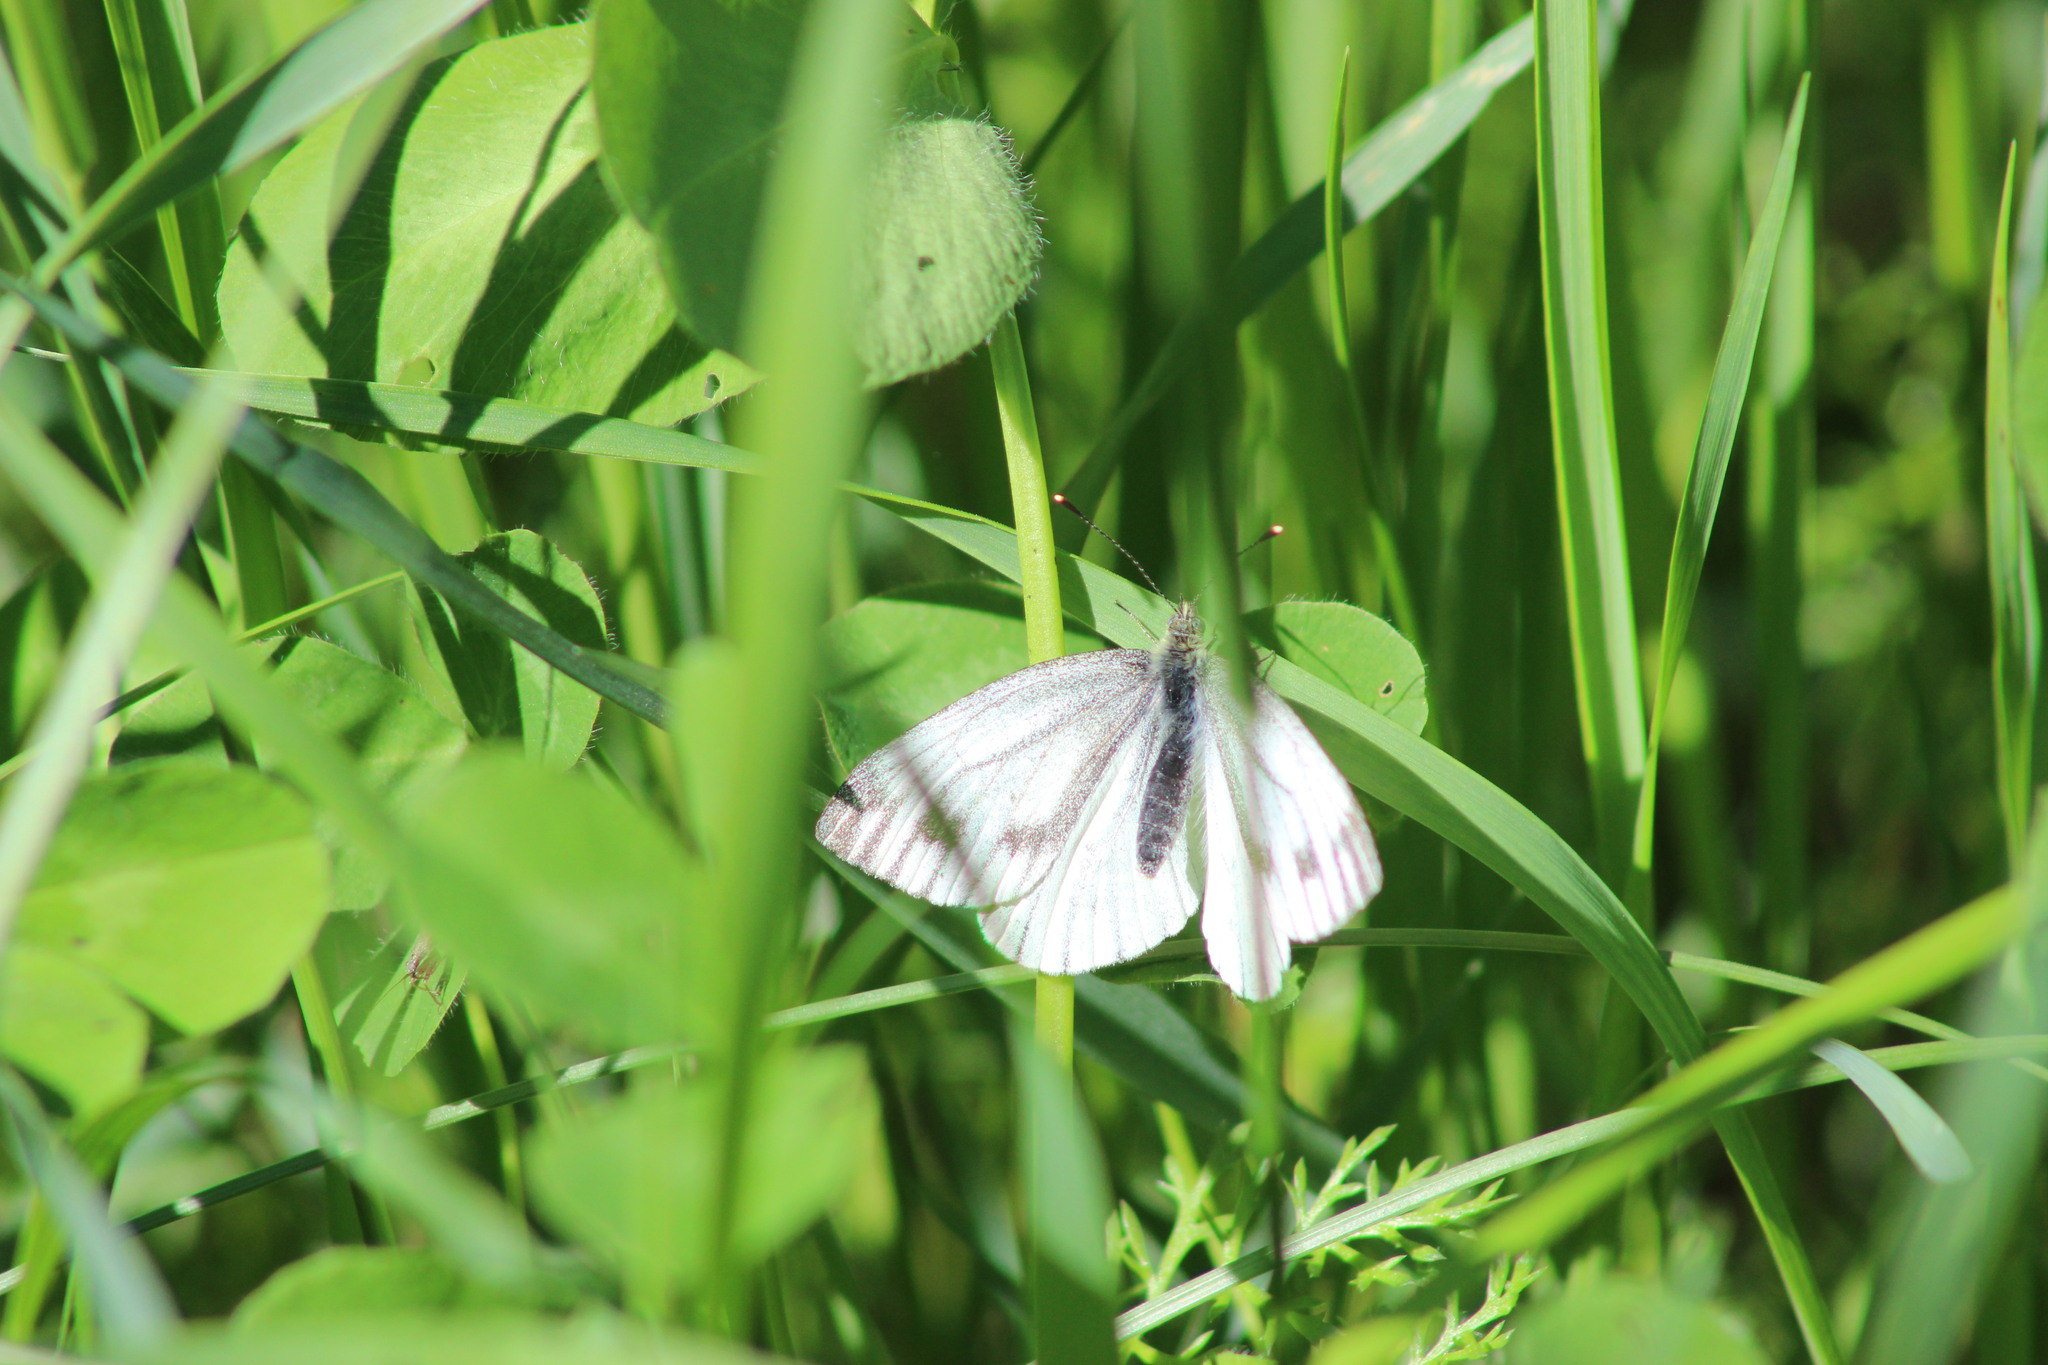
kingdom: Animalia
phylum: Arthropoda
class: Insecta
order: Lepidoptera
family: Pieridae
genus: Pieris
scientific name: Pieris napi
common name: Green-veined white
